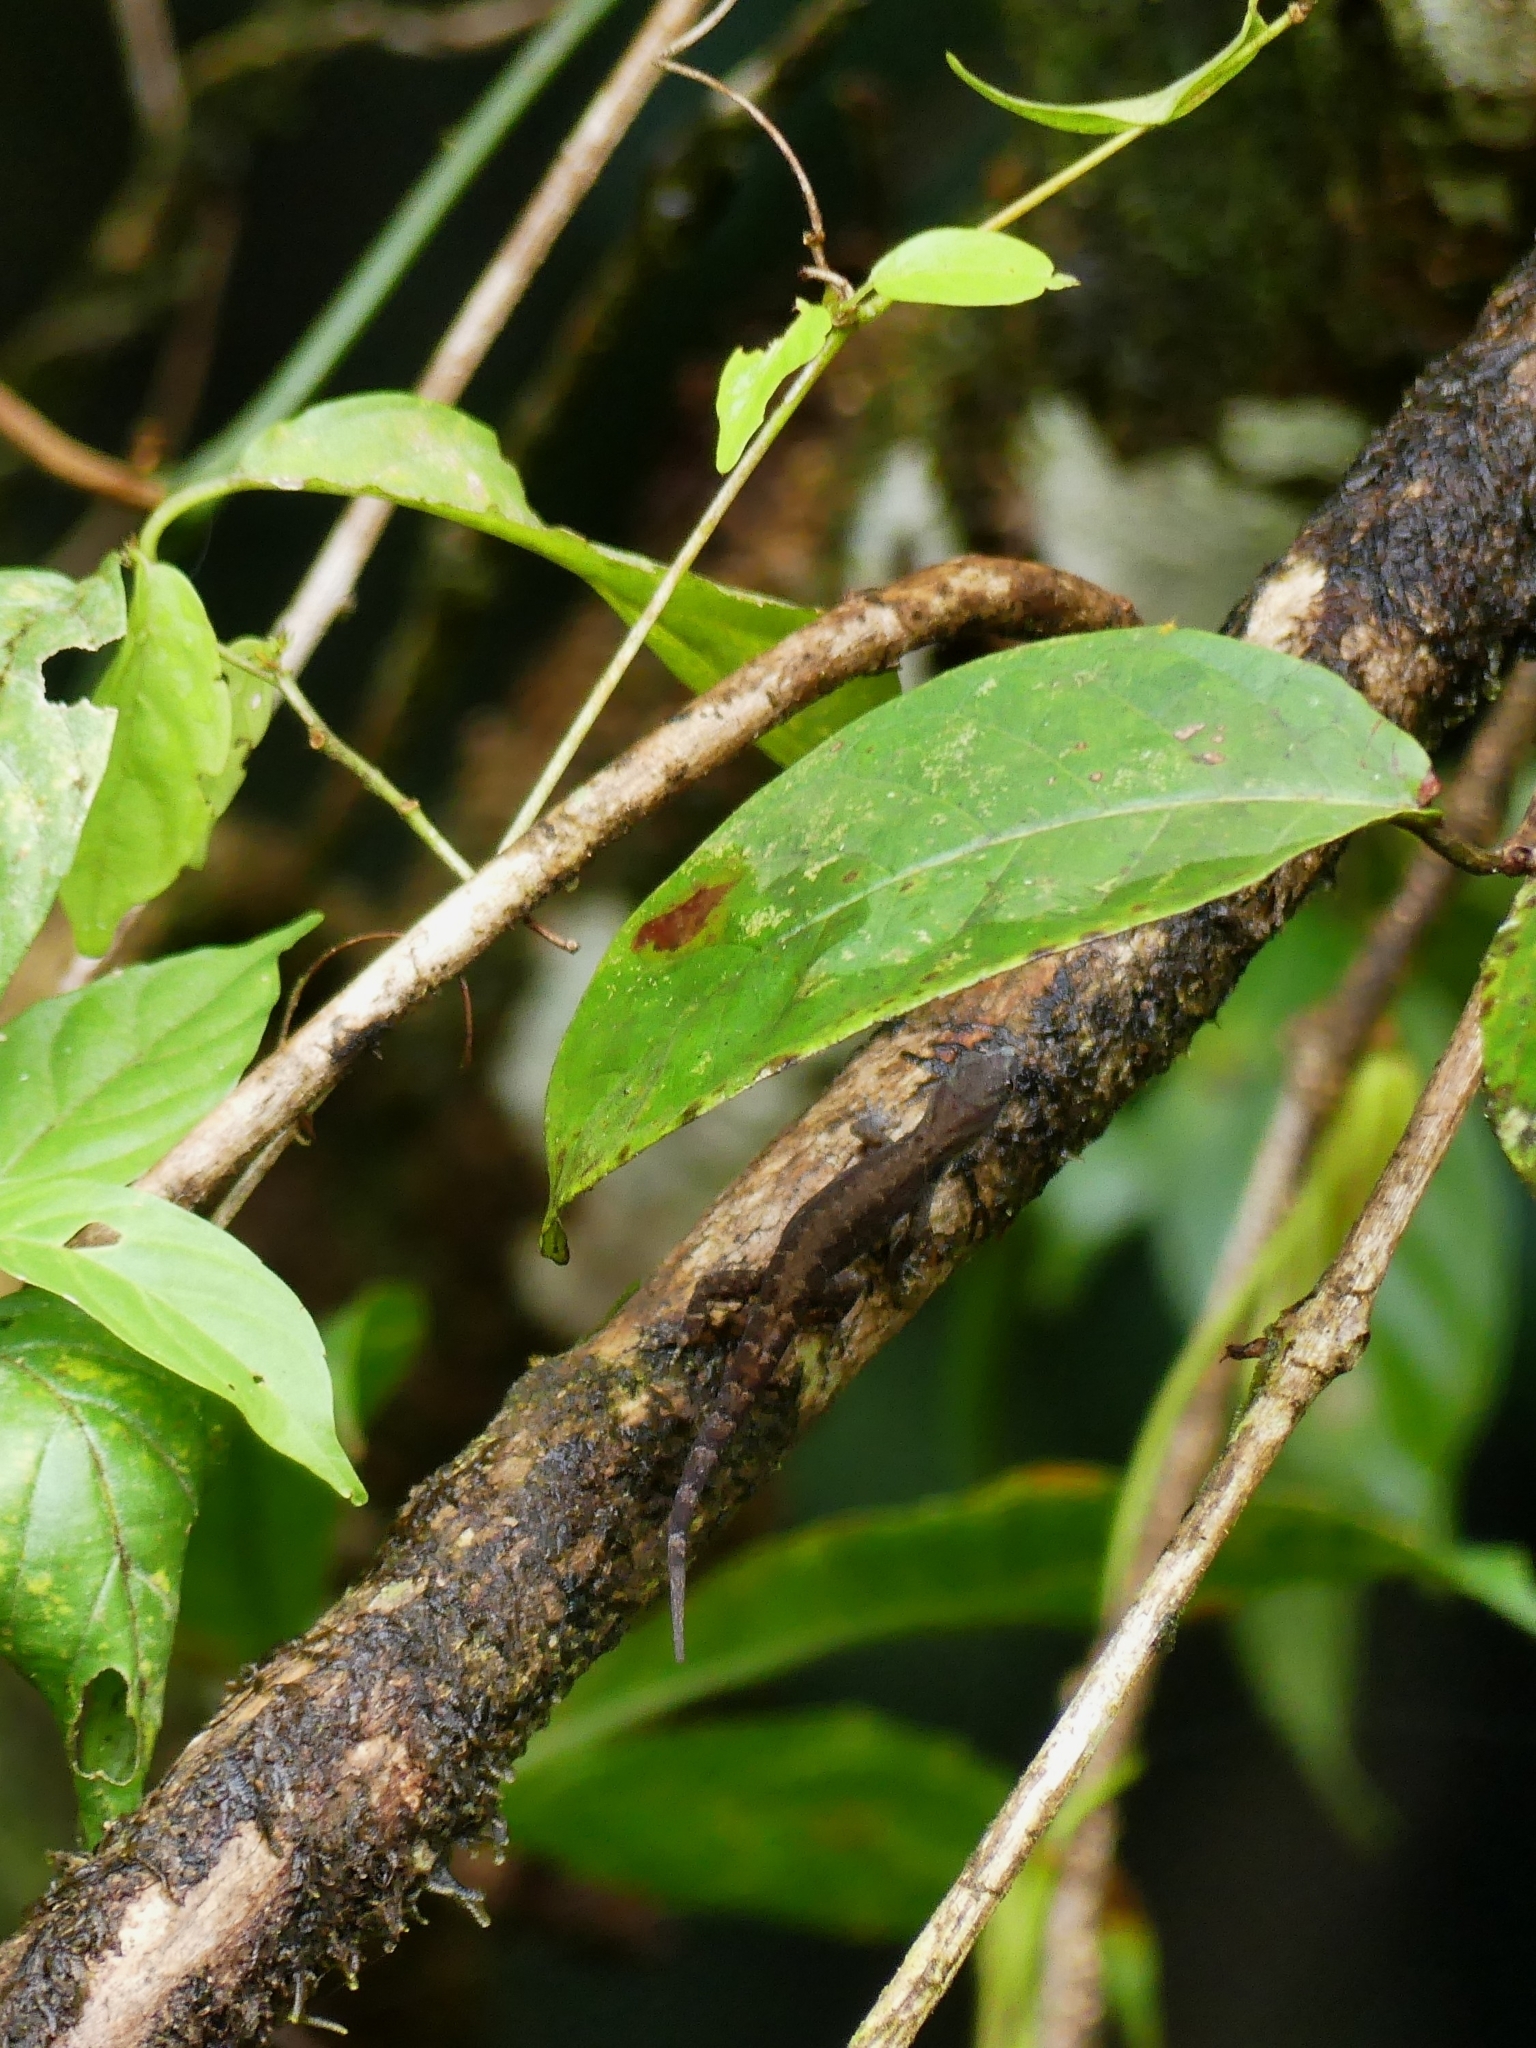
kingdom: Animalia
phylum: Chordata
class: Squamata
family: Sphaerodactylidae
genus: Gonatodes
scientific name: Gonatodes humeralis
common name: South american clawed gecko
